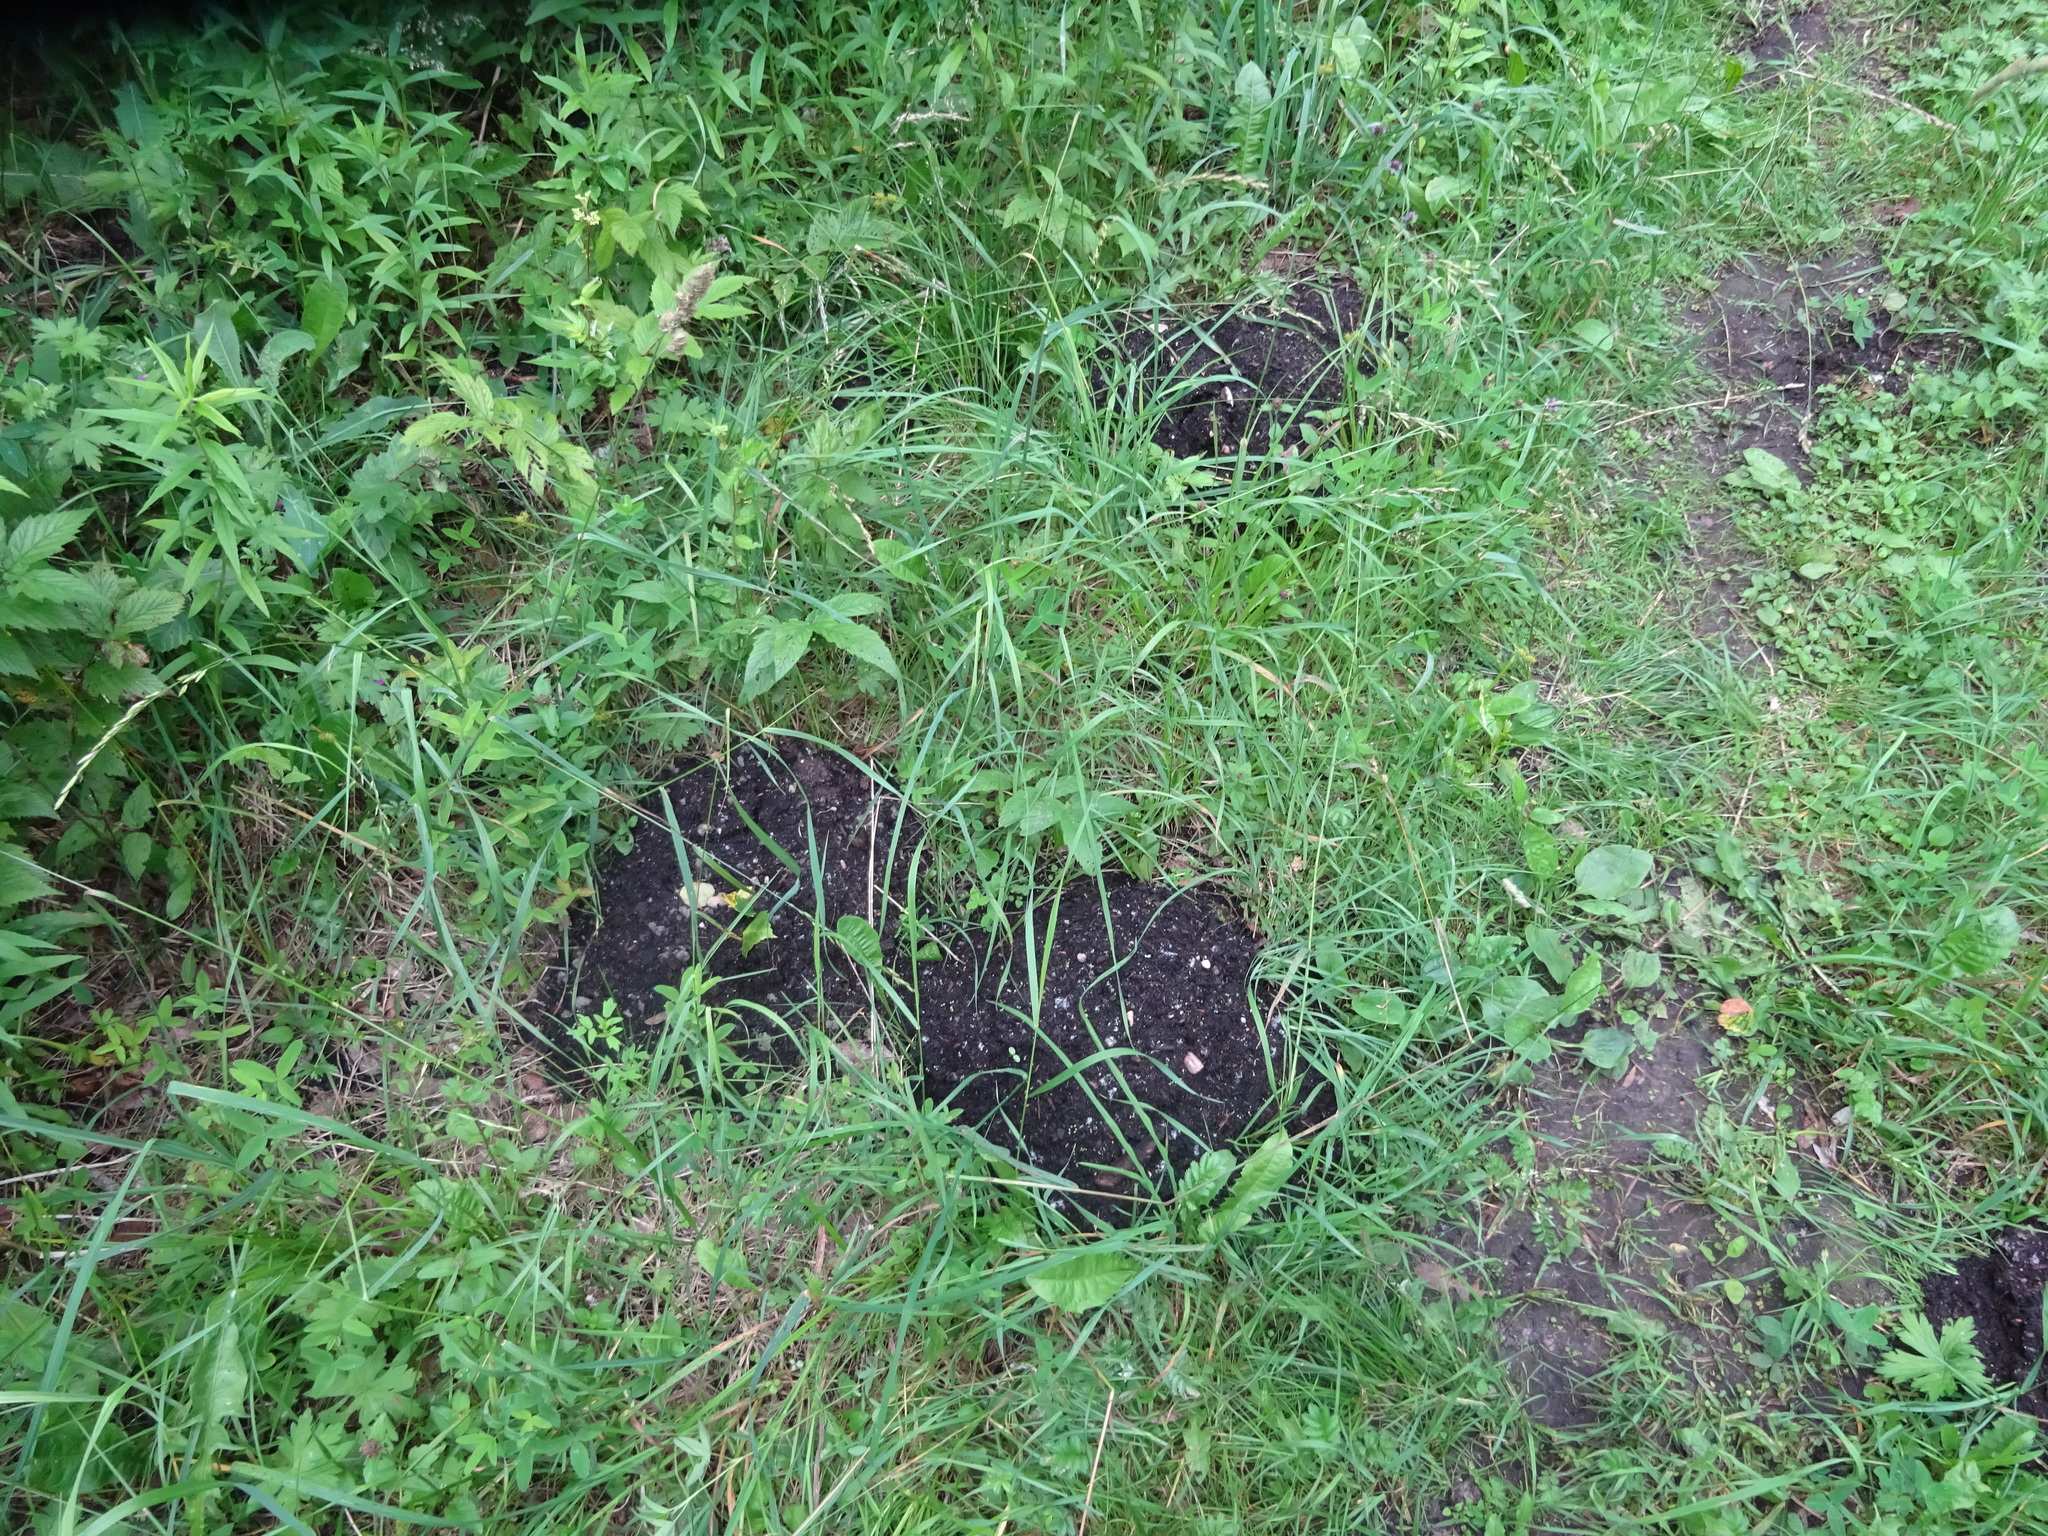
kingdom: Animalia
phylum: Chordata
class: Mammalia
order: Soricomorpha
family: Talpidae
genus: Talpa
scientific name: Talpa europaea
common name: European mole
